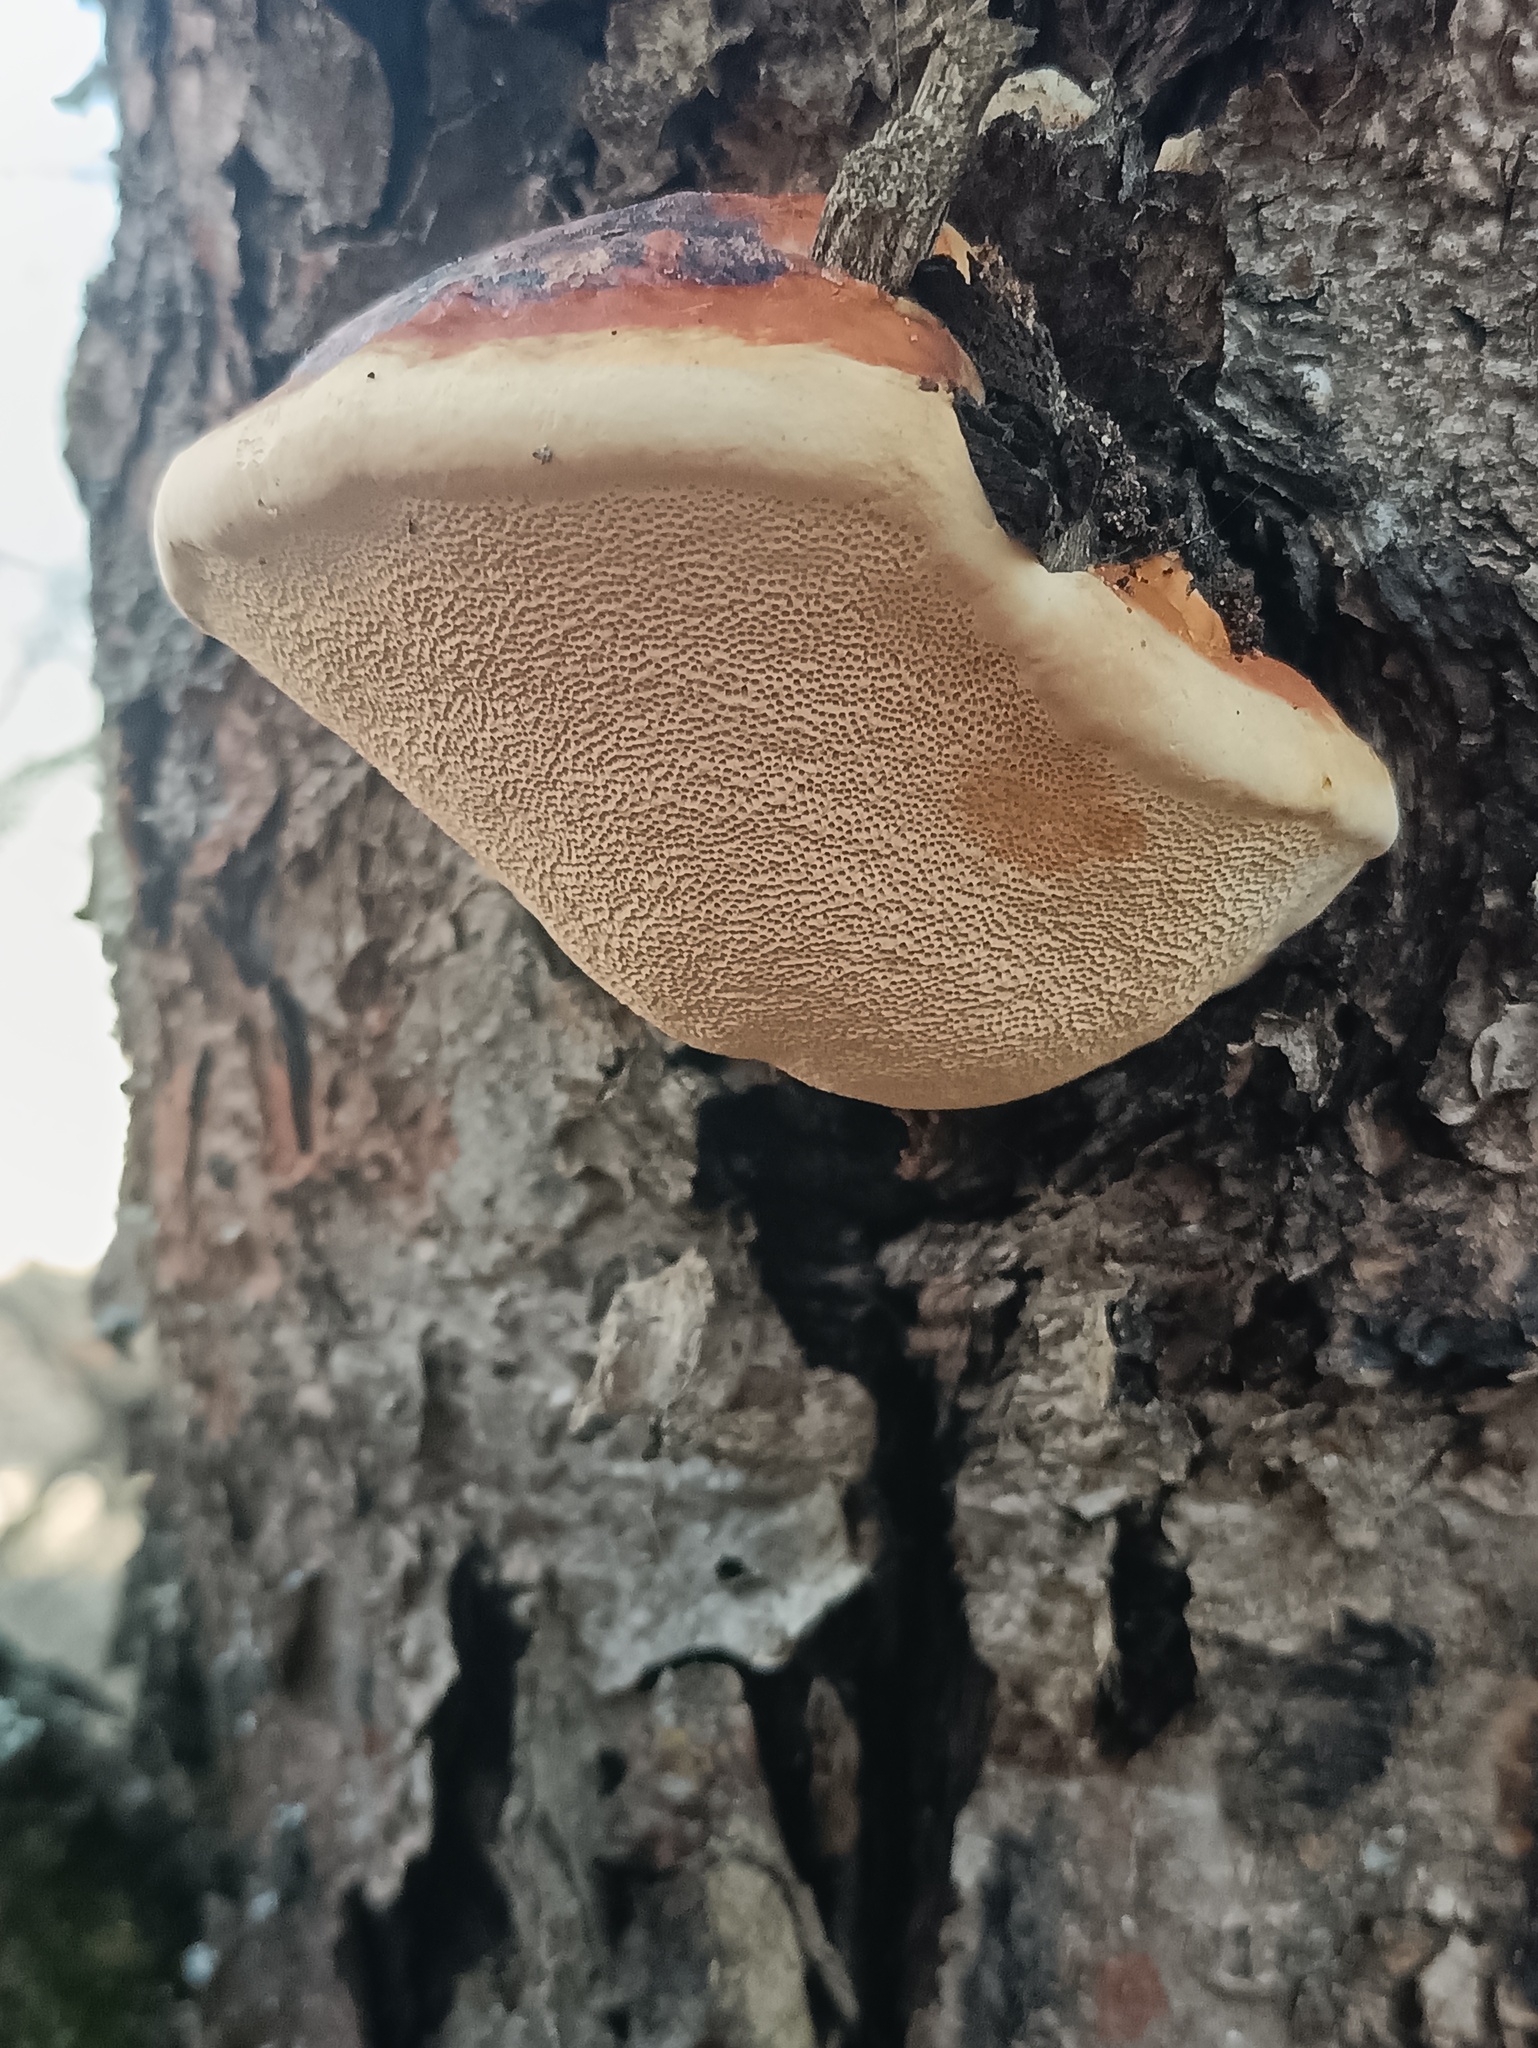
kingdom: Fungi
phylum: Basidiomycota
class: Agaricomycetes
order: Polyporales
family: Fomitopsidaceae
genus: Fomitopsis
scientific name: Fomitopsis pinicola
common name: Red-belted bracket
